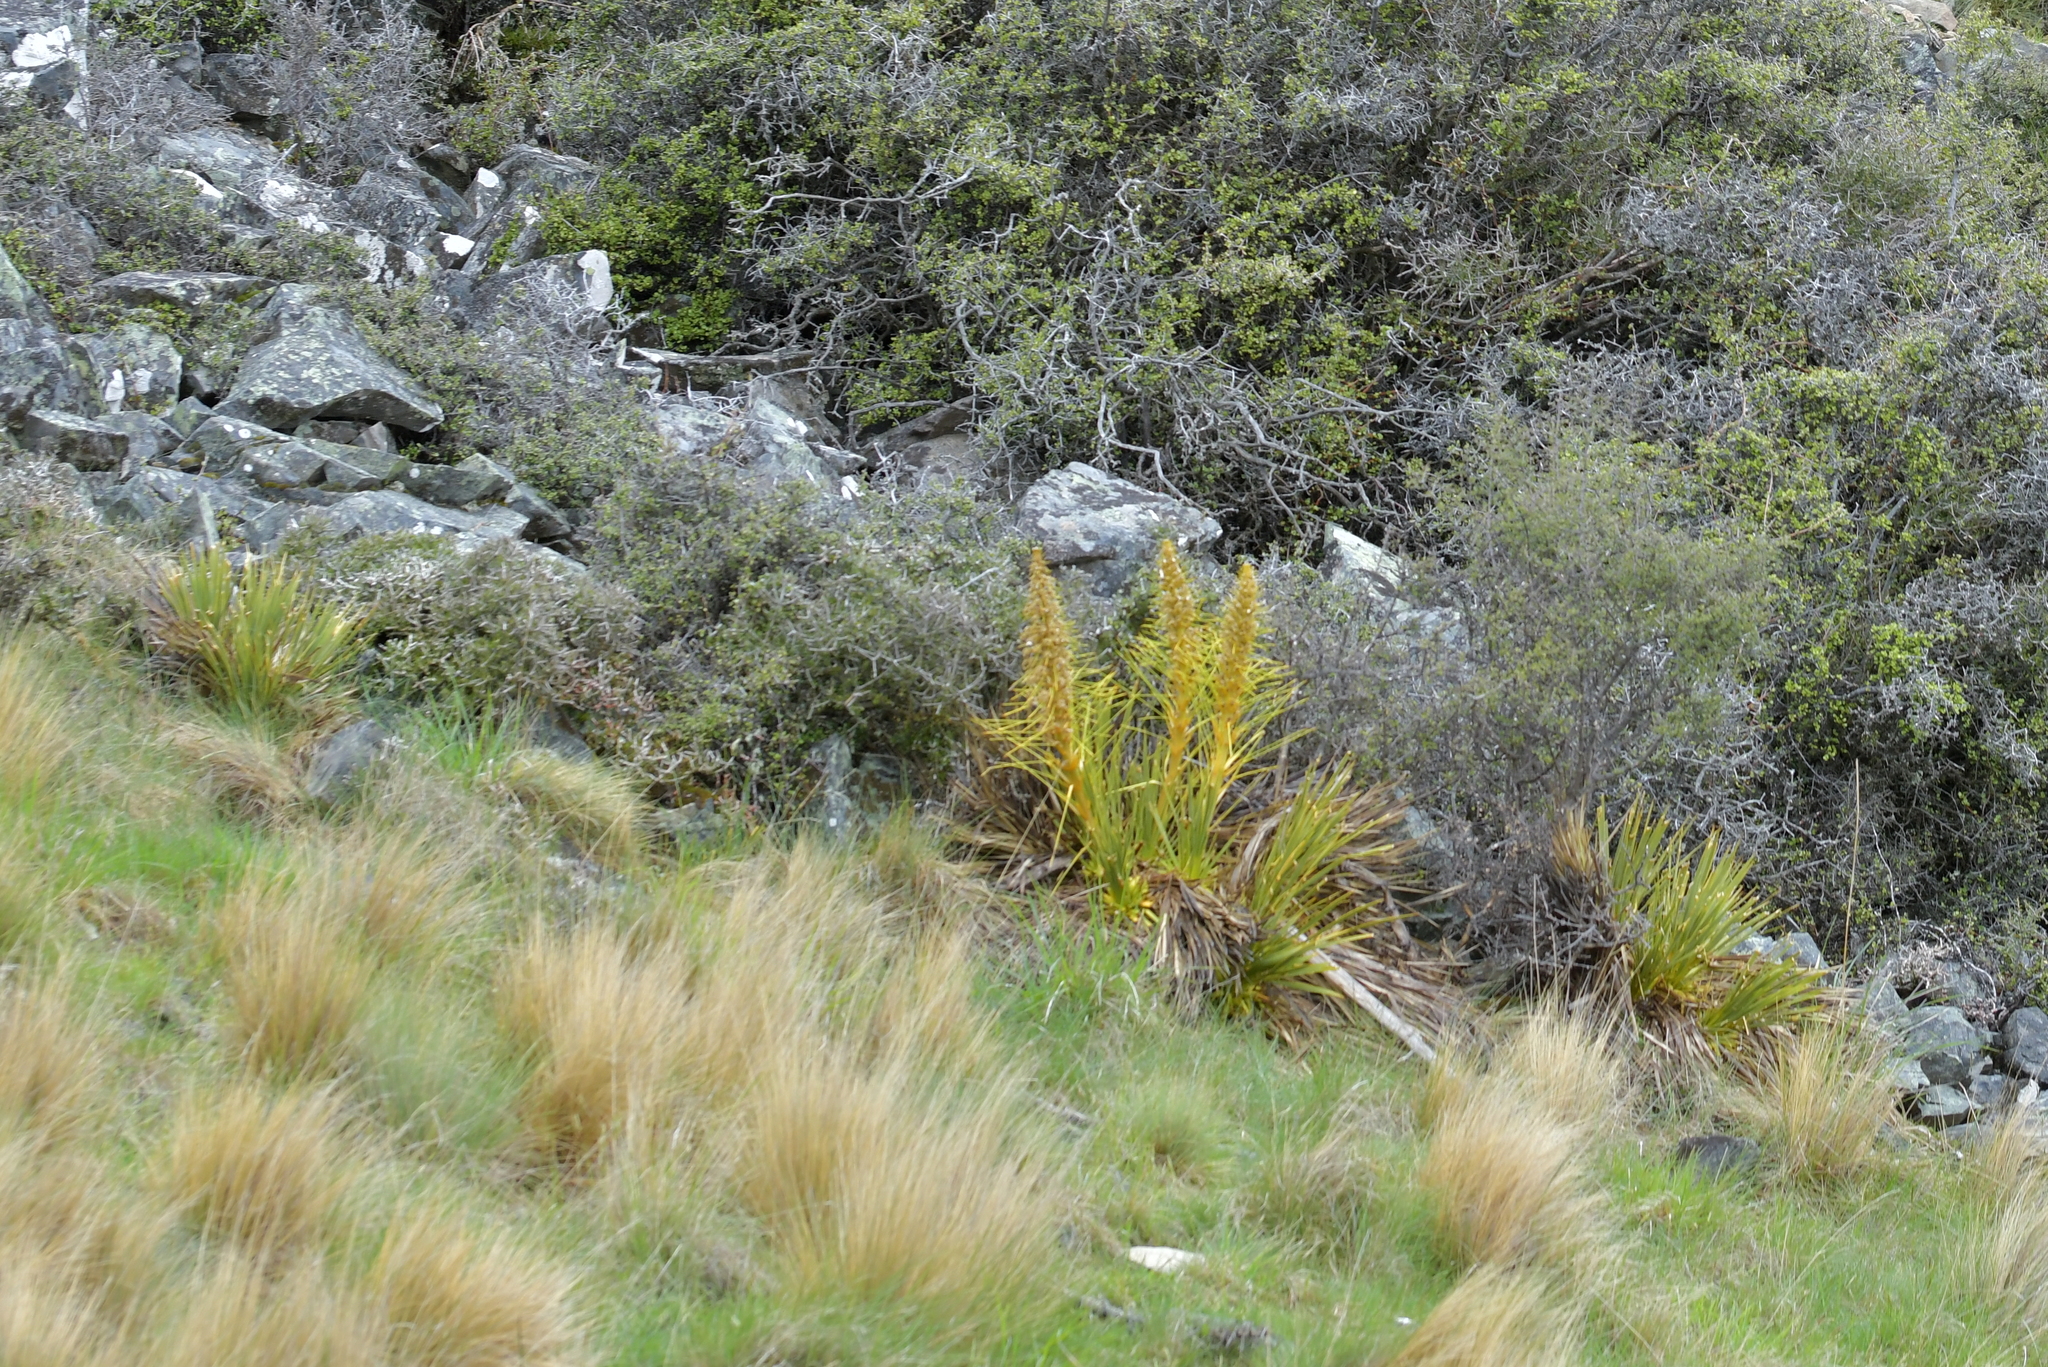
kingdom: Plantae
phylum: Tracheophyta
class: Magnoliopsida
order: Apiales
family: Apiaceae
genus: Aciphylla
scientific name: Aciphylla aurea
